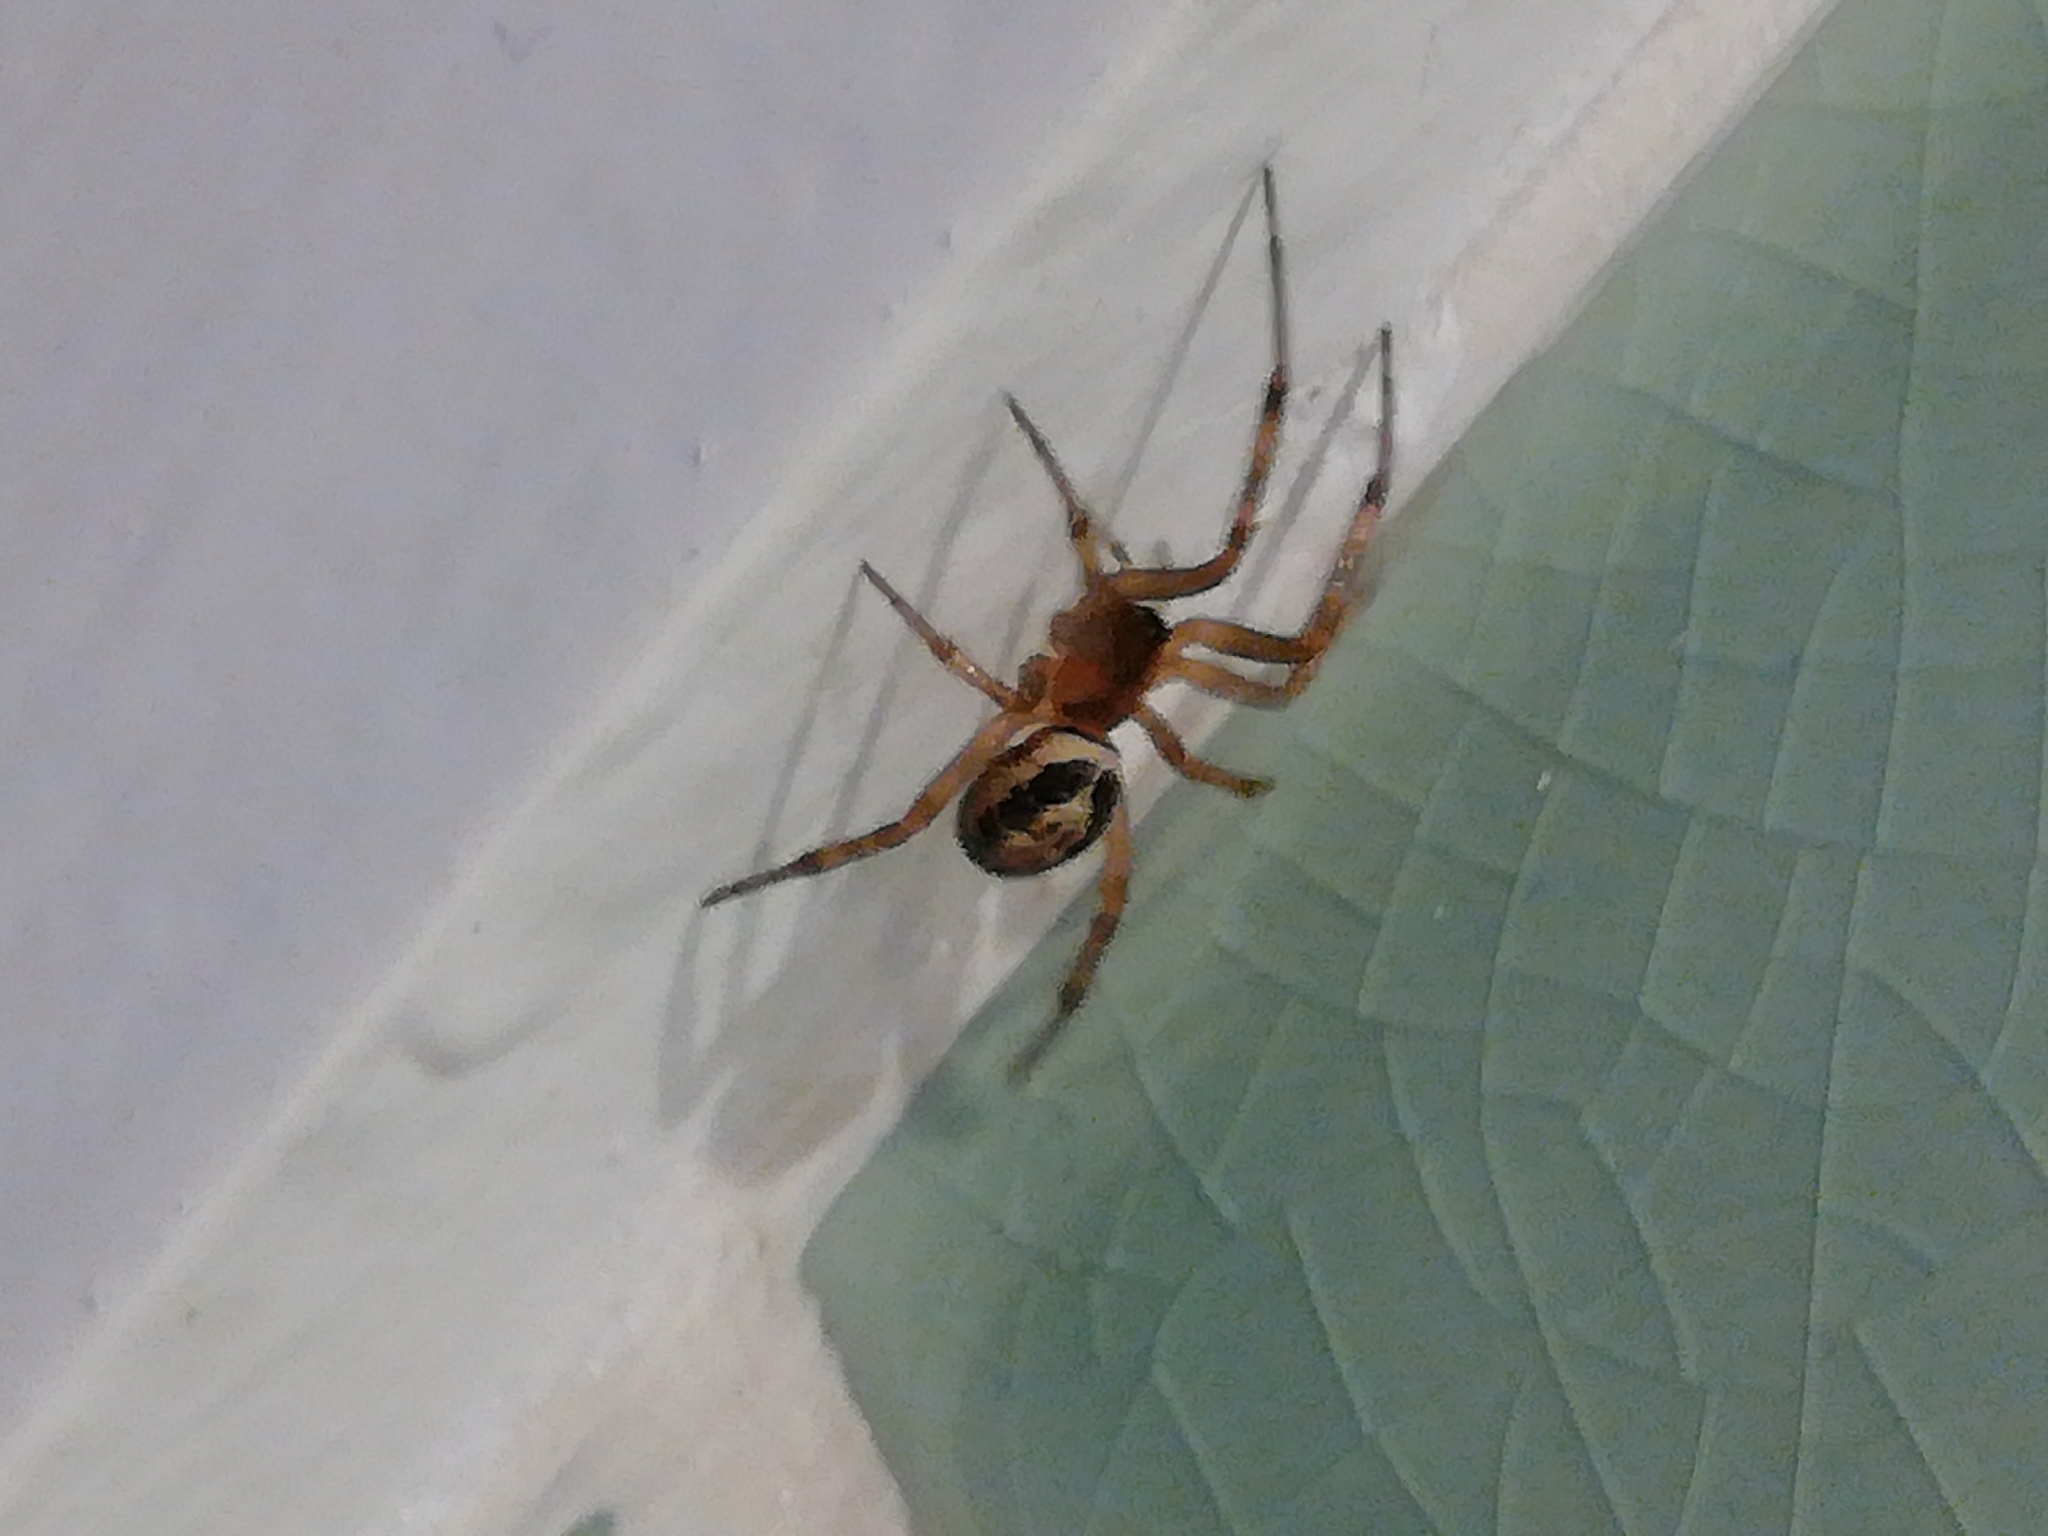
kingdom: Animalia
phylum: Arthropoda
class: Arachnida
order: Araneae
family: Theridiidae
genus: Steatoda
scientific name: Steatoda nobilis
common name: Cobweb weaver
